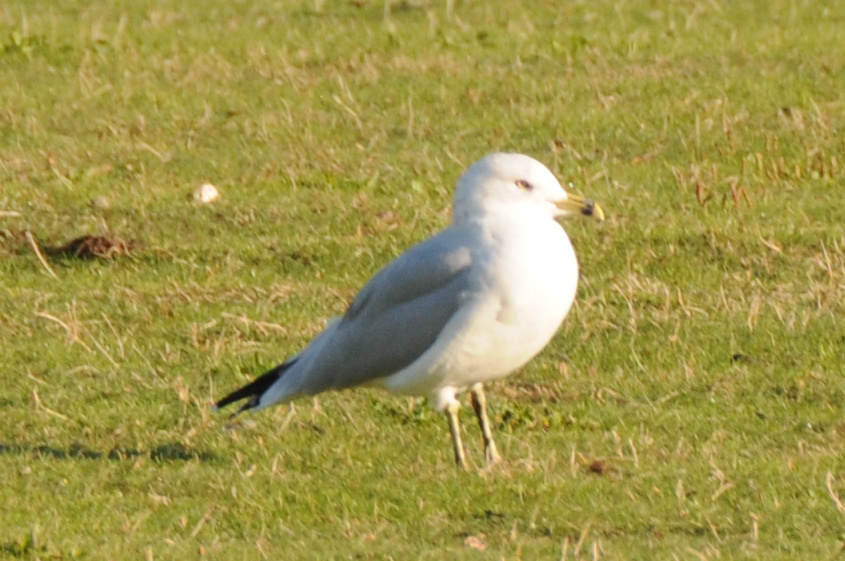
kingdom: Animalia
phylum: Chordata
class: Aves
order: Charadriiformes
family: Laridae
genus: Larus
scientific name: Larus delawarensis
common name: Ring-billed gull
